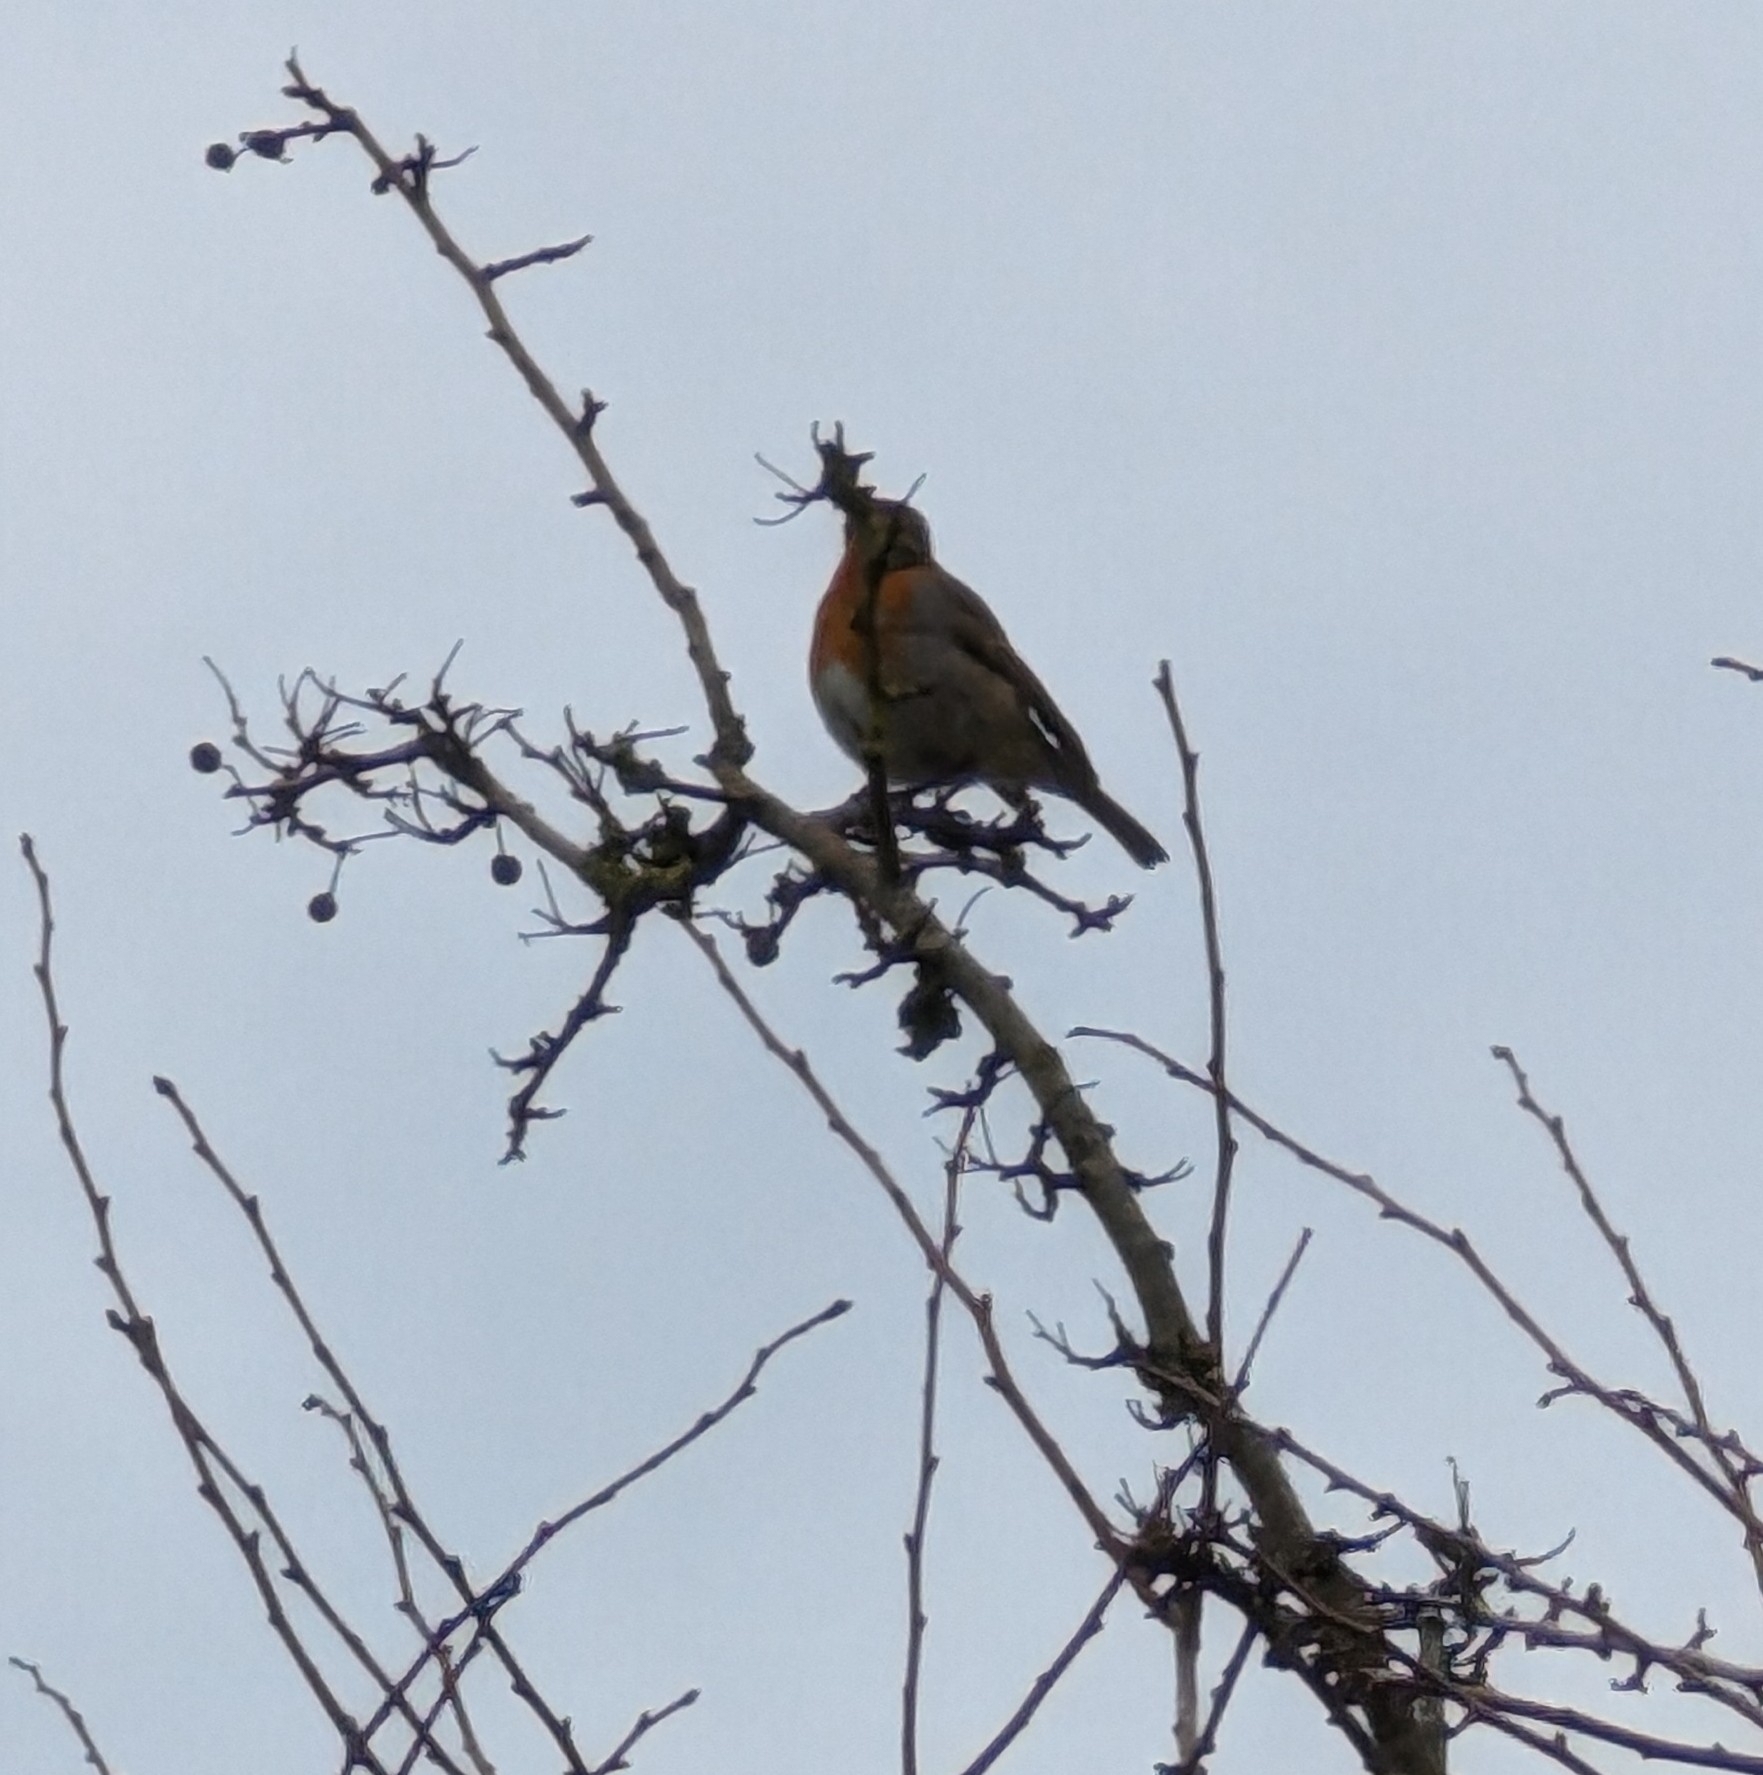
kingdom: Animalia
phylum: Chordata
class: Aves
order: Passeriformes
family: Muscicapidae
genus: Erithacus
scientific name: Erithacus rubecula
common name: European robin
